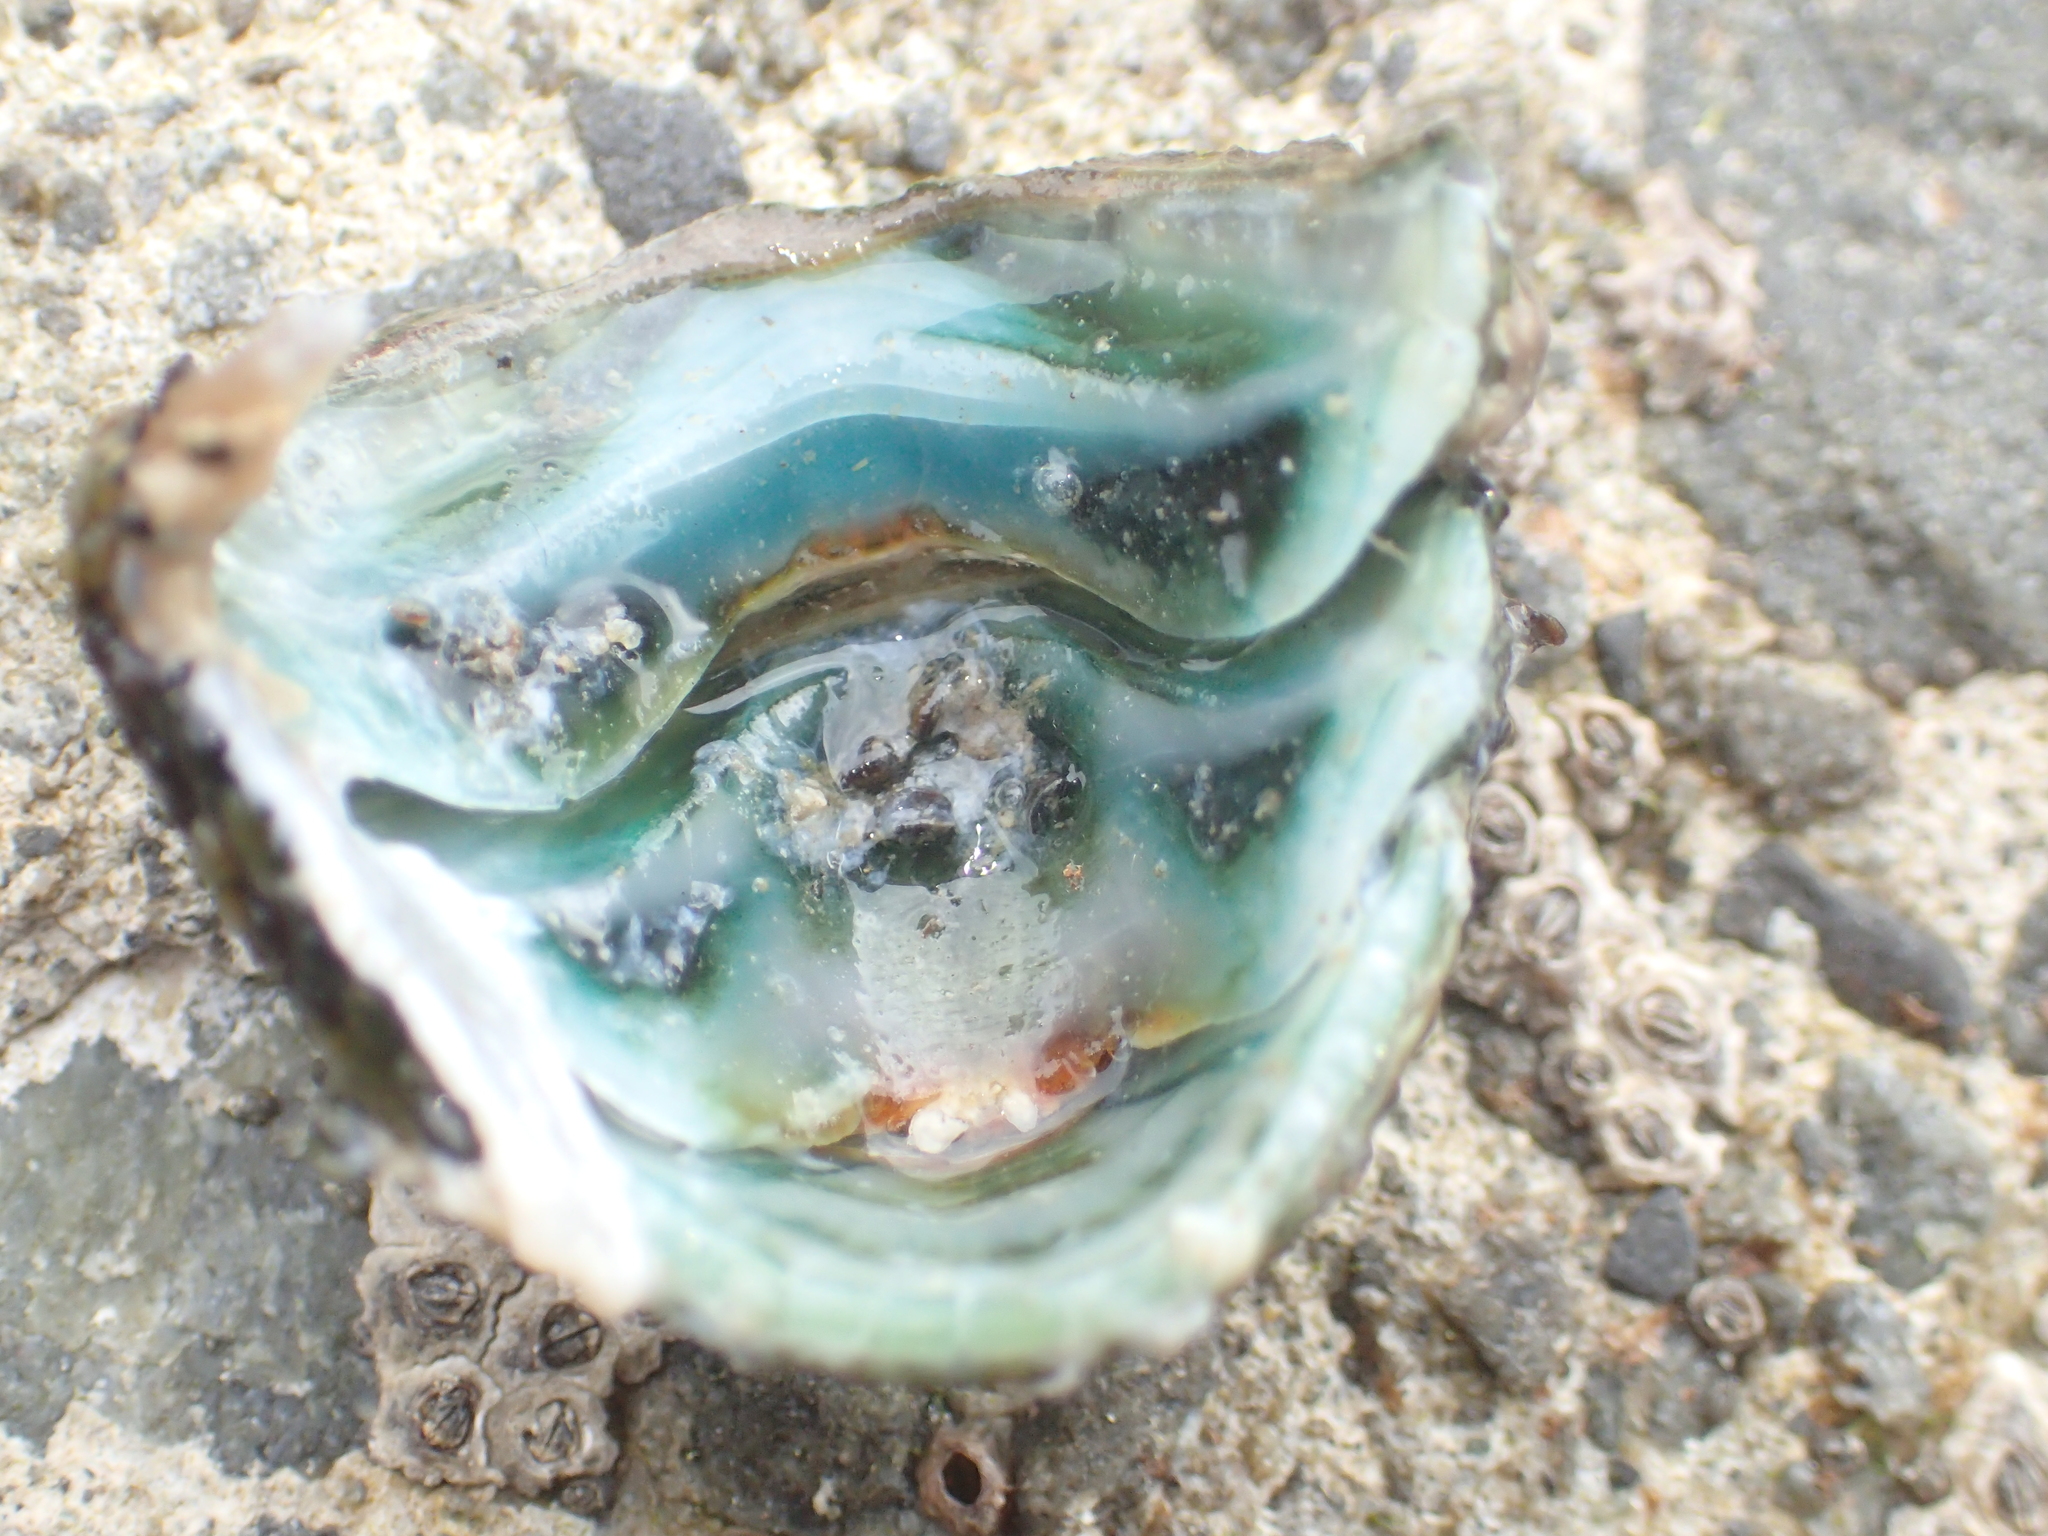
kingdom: Animalia
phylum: Mollusca
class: Polyplacophora
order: Chitonida
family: Chitonidae
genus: Sypharochiton
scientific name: Sypharochiton pelliserpentis
